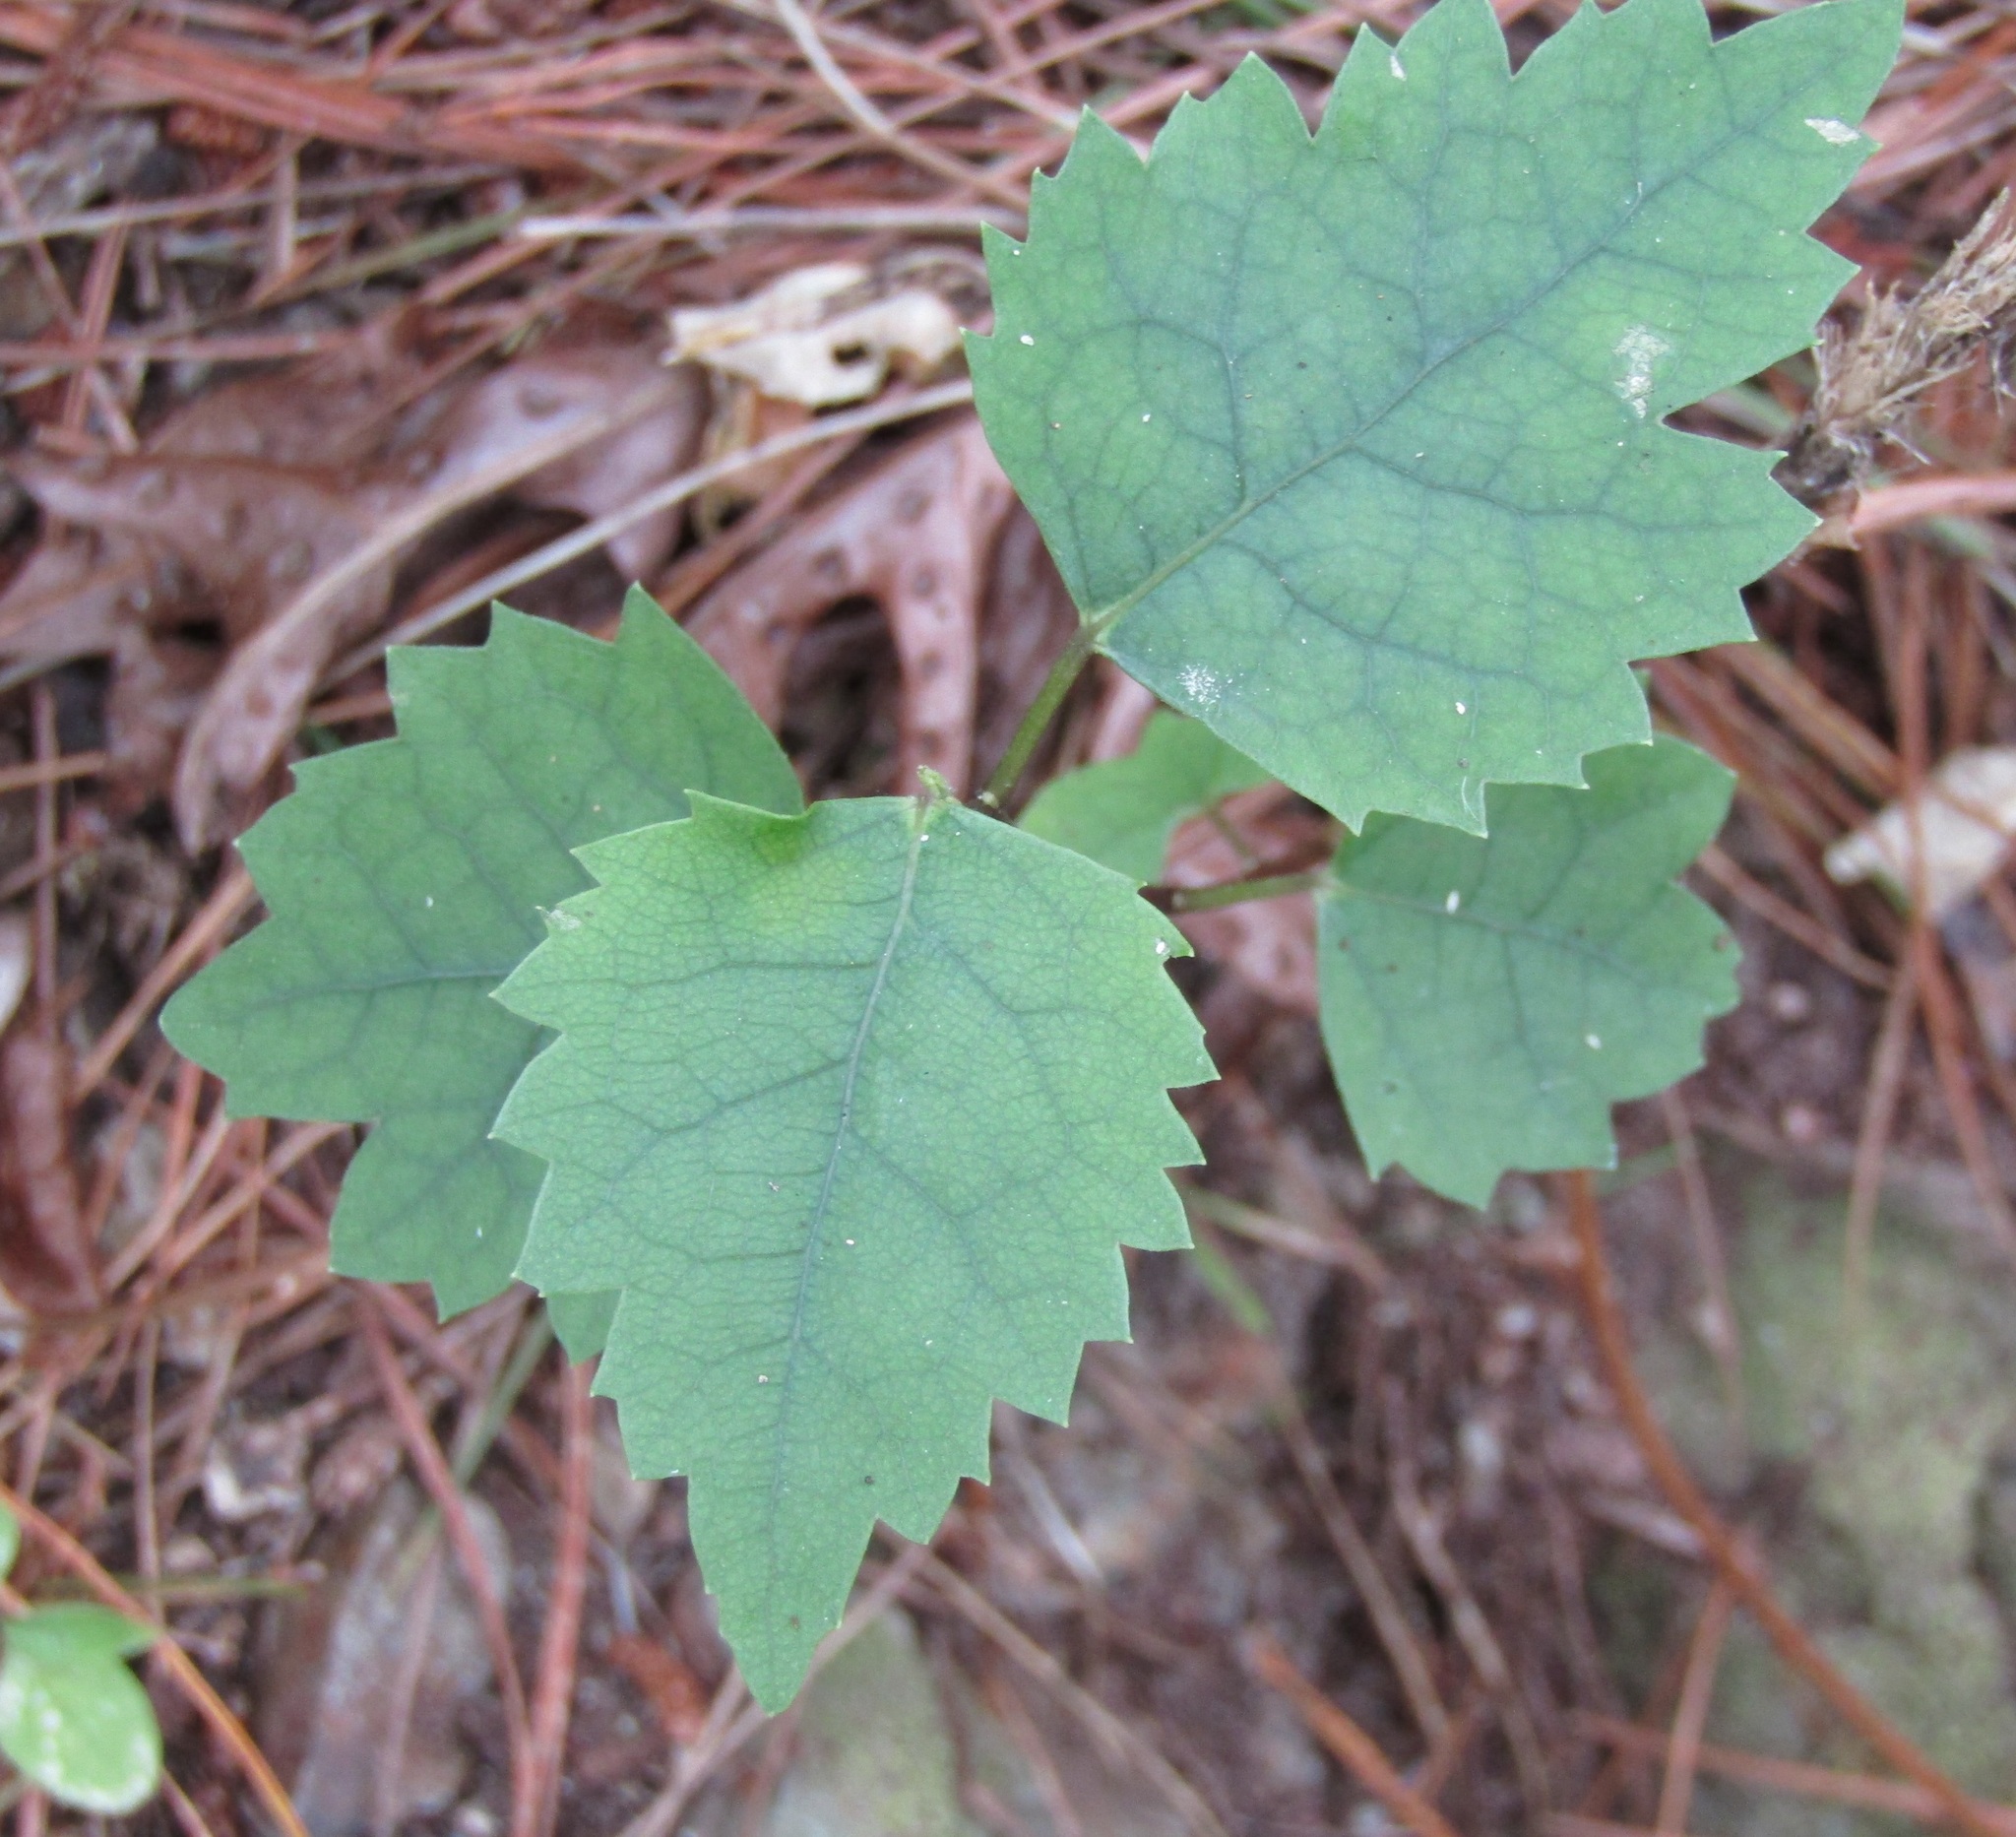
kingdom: Plantae
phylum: Tracheophyta
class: Magnoliopsida
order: Malvales
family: Malvaceae
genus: Hoheria
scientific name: Hoheria populnea
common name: Lacebark
